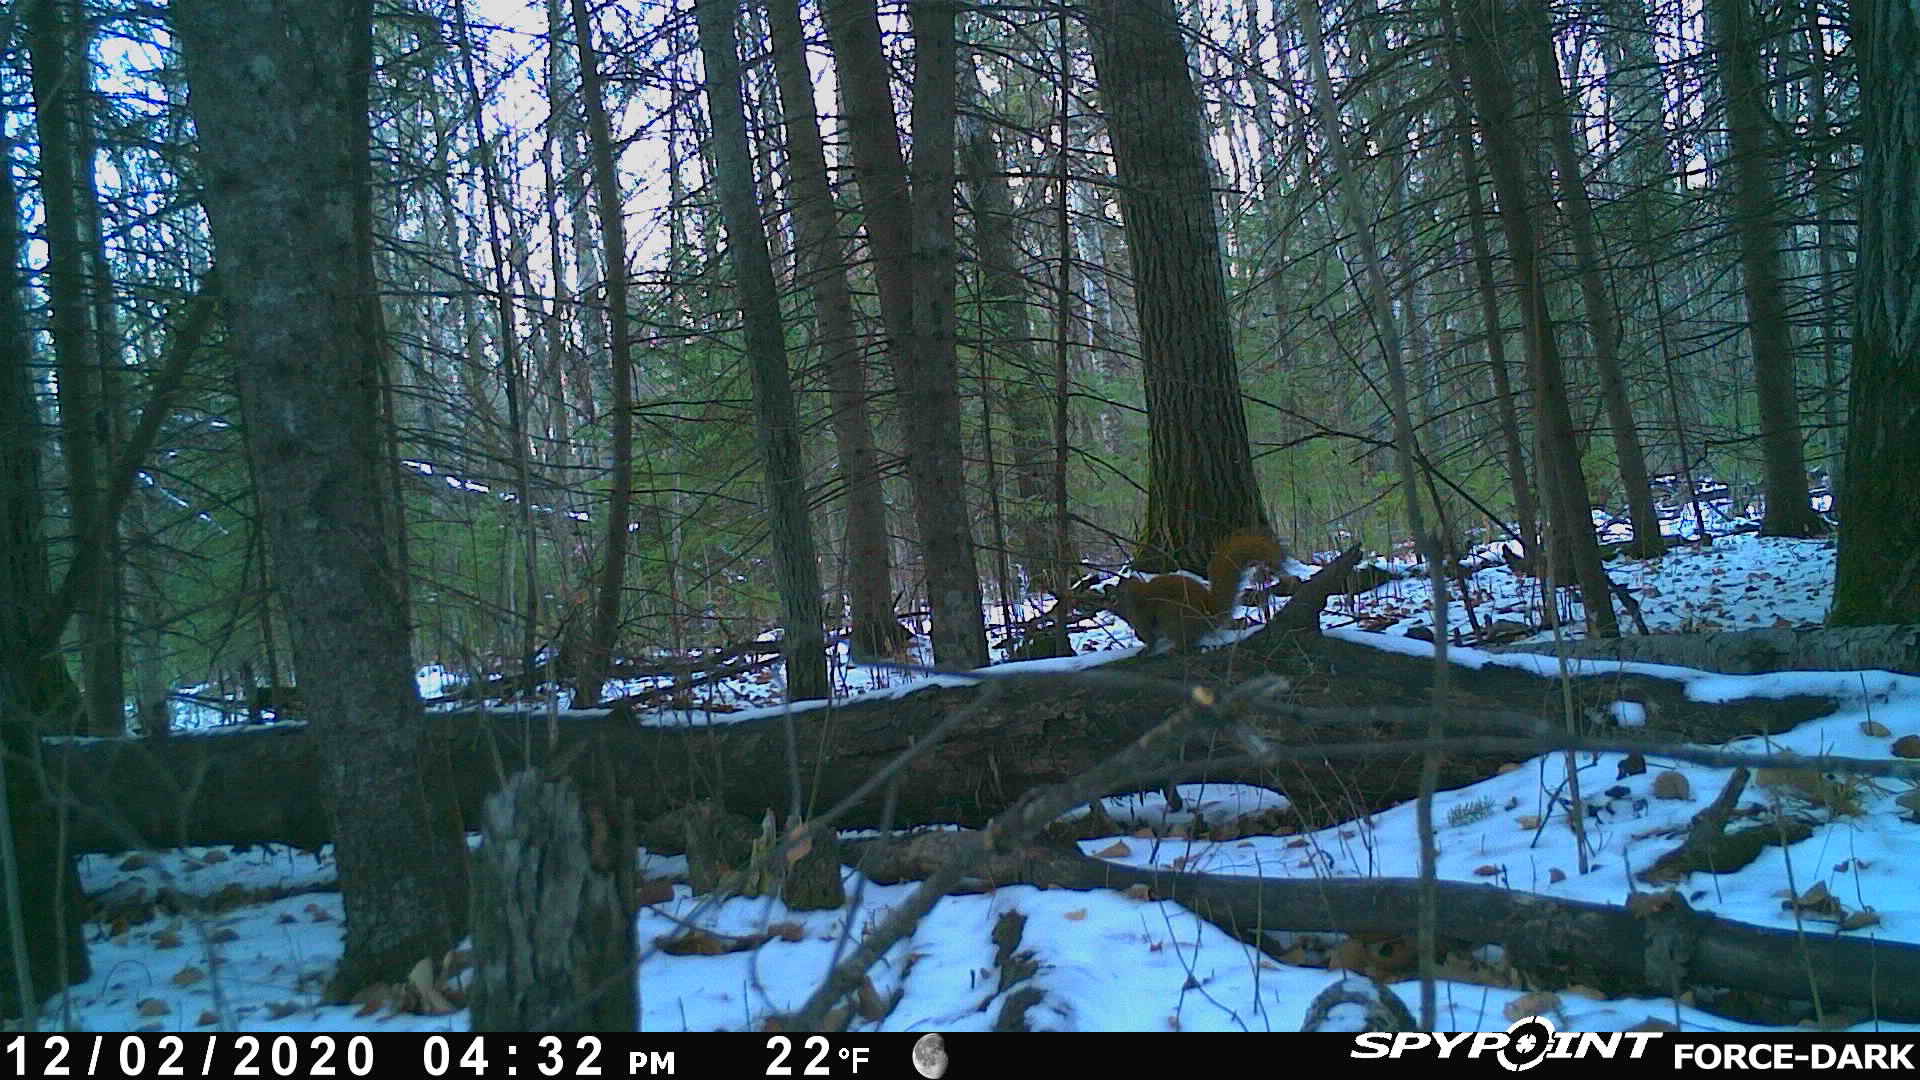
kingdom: Animalia
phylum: Chordata
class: Mammalia
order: Rodentia
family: Sciuridae
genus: Tamiasciurus
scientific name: Tamiasciurus hudsonicus
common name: Red squirrel
